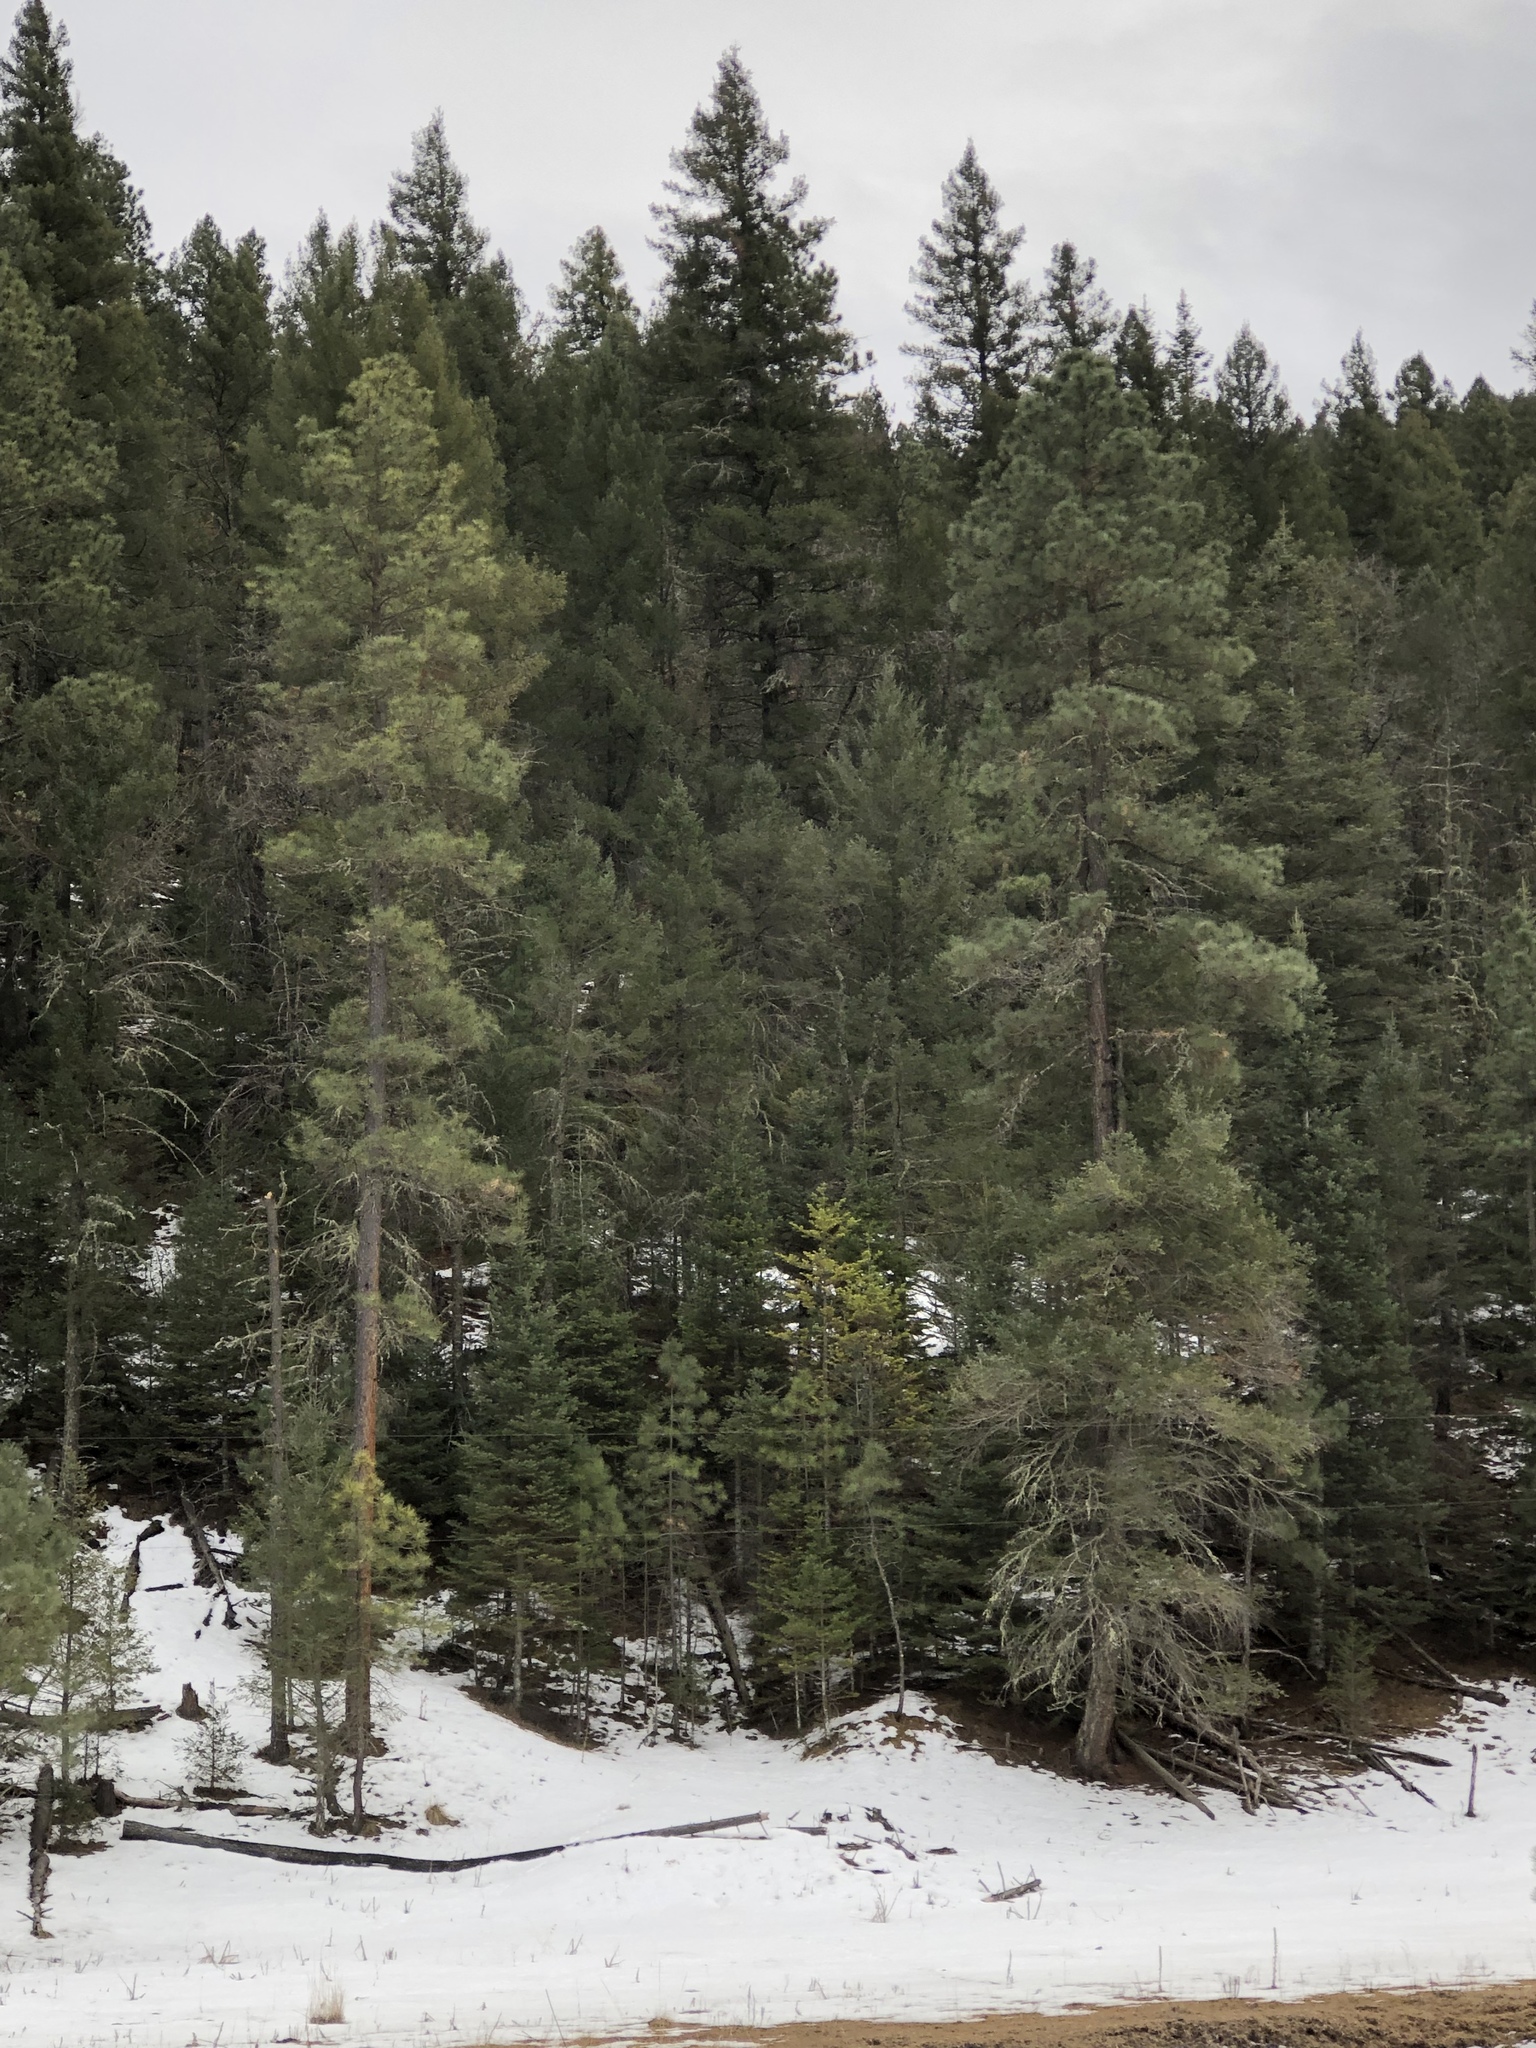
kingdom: Plantae
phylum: Tracheophyta
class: Pinopsida
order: Pinales
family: Pinaceae
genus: Pinus
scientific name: Pinus ponderosa
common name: Western yellow-pine
